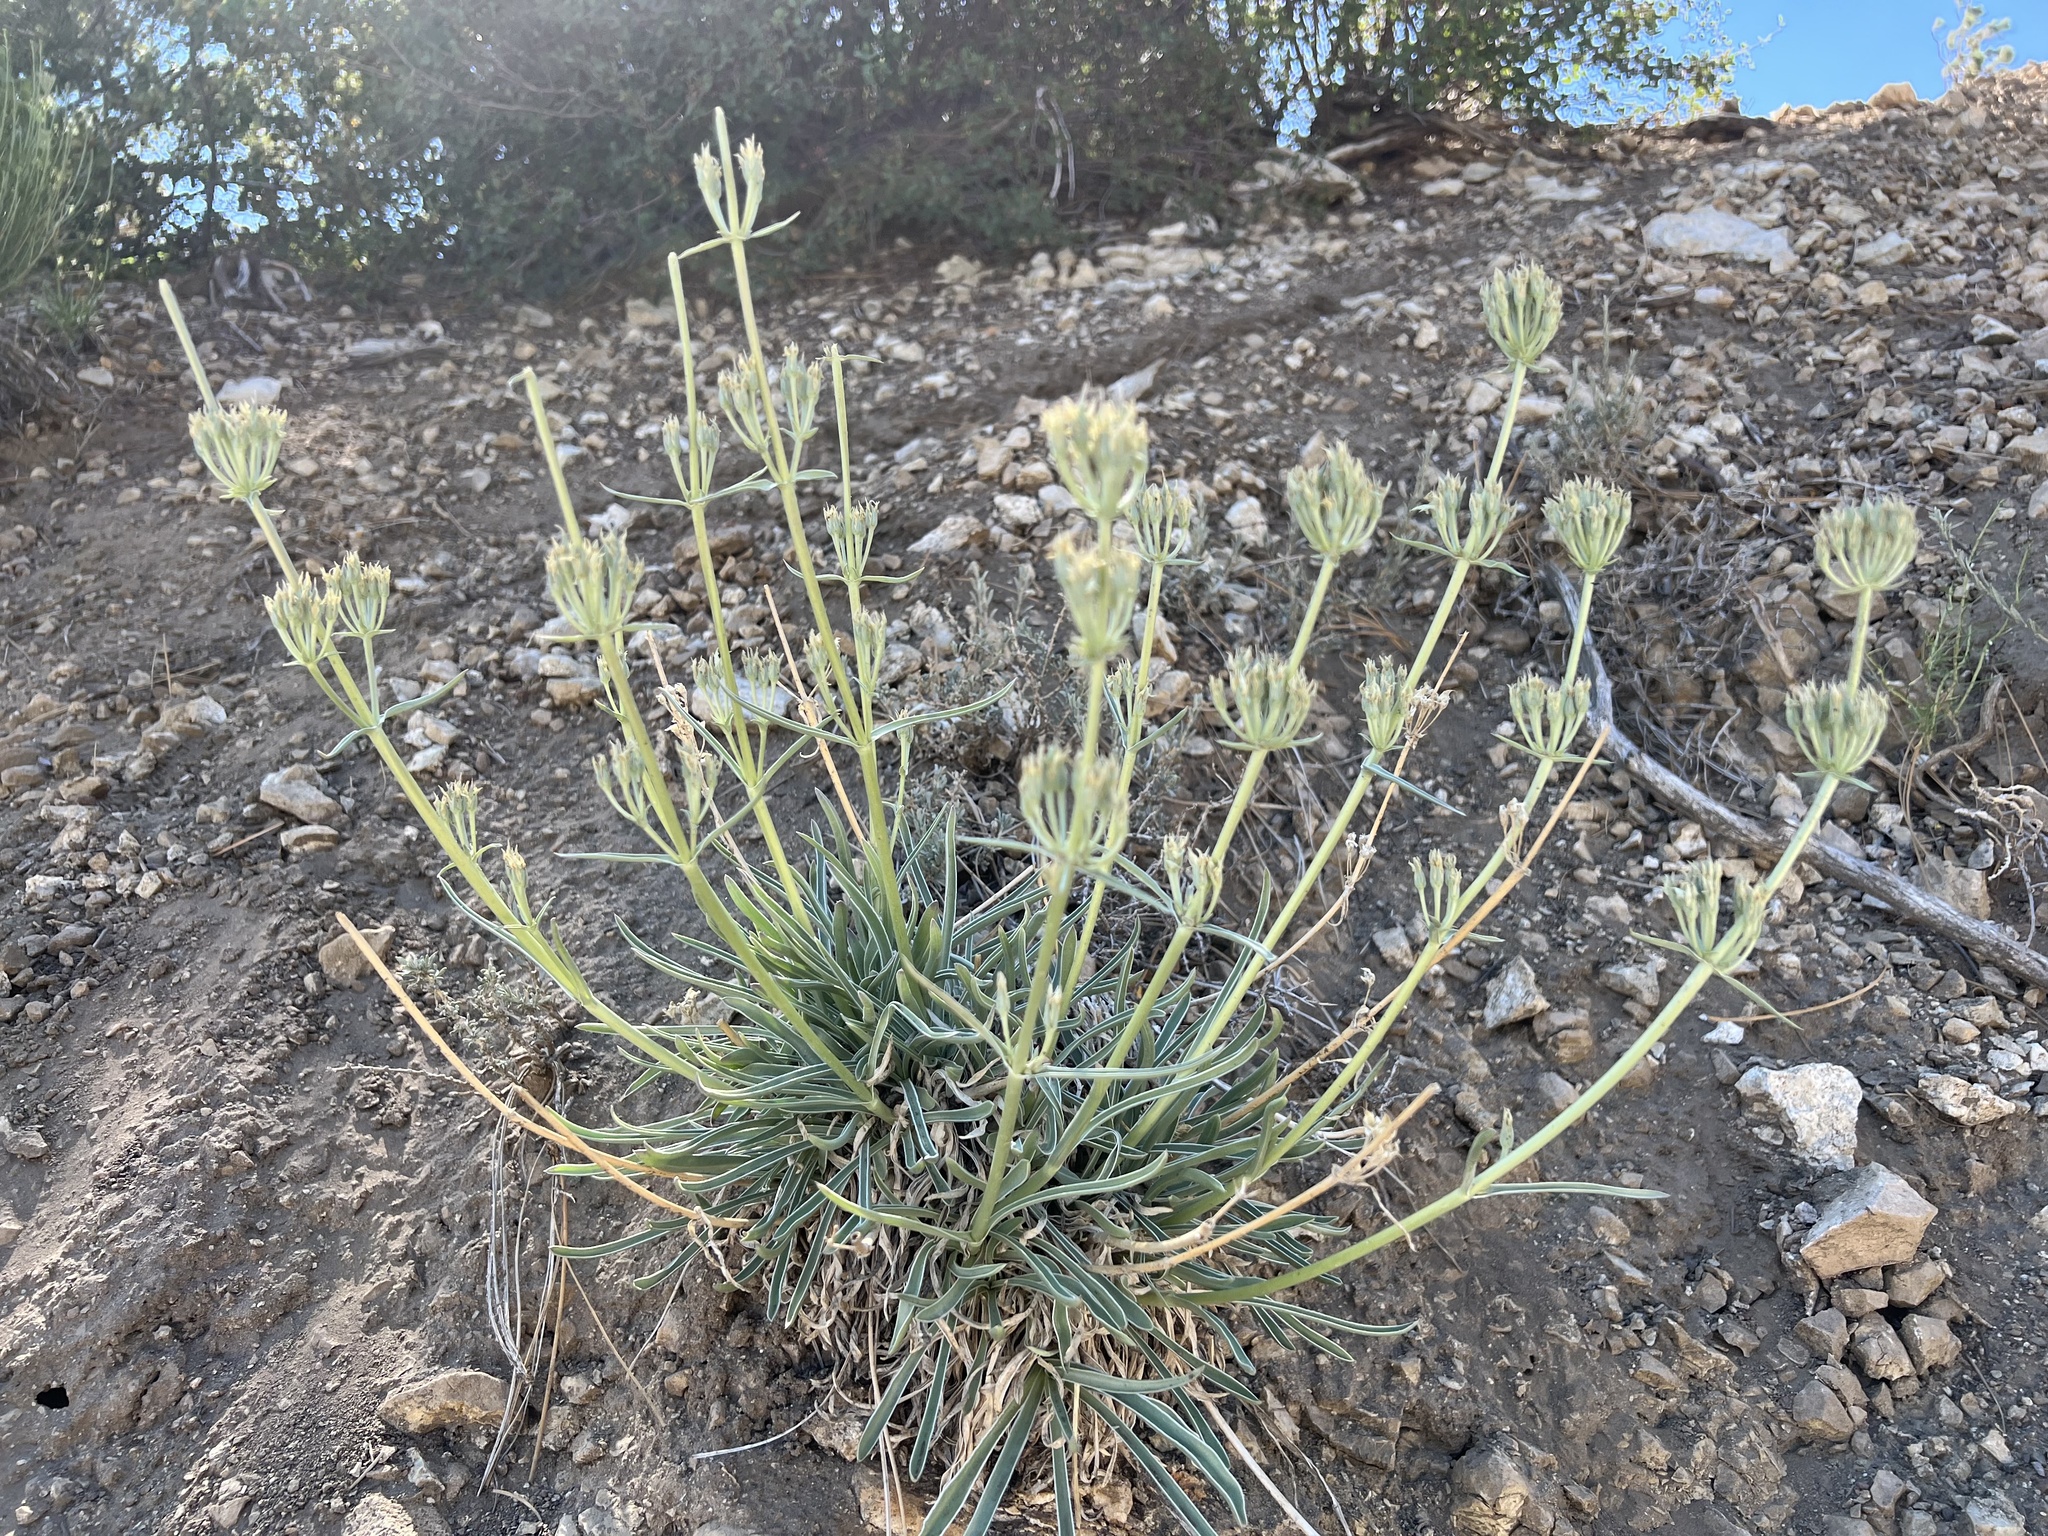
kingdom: Plantae
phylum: Tracheophyta
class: Magnoliopsida
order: Gentianales
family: Gentianaceae
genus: Frasera
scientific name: Frasera neglecta
